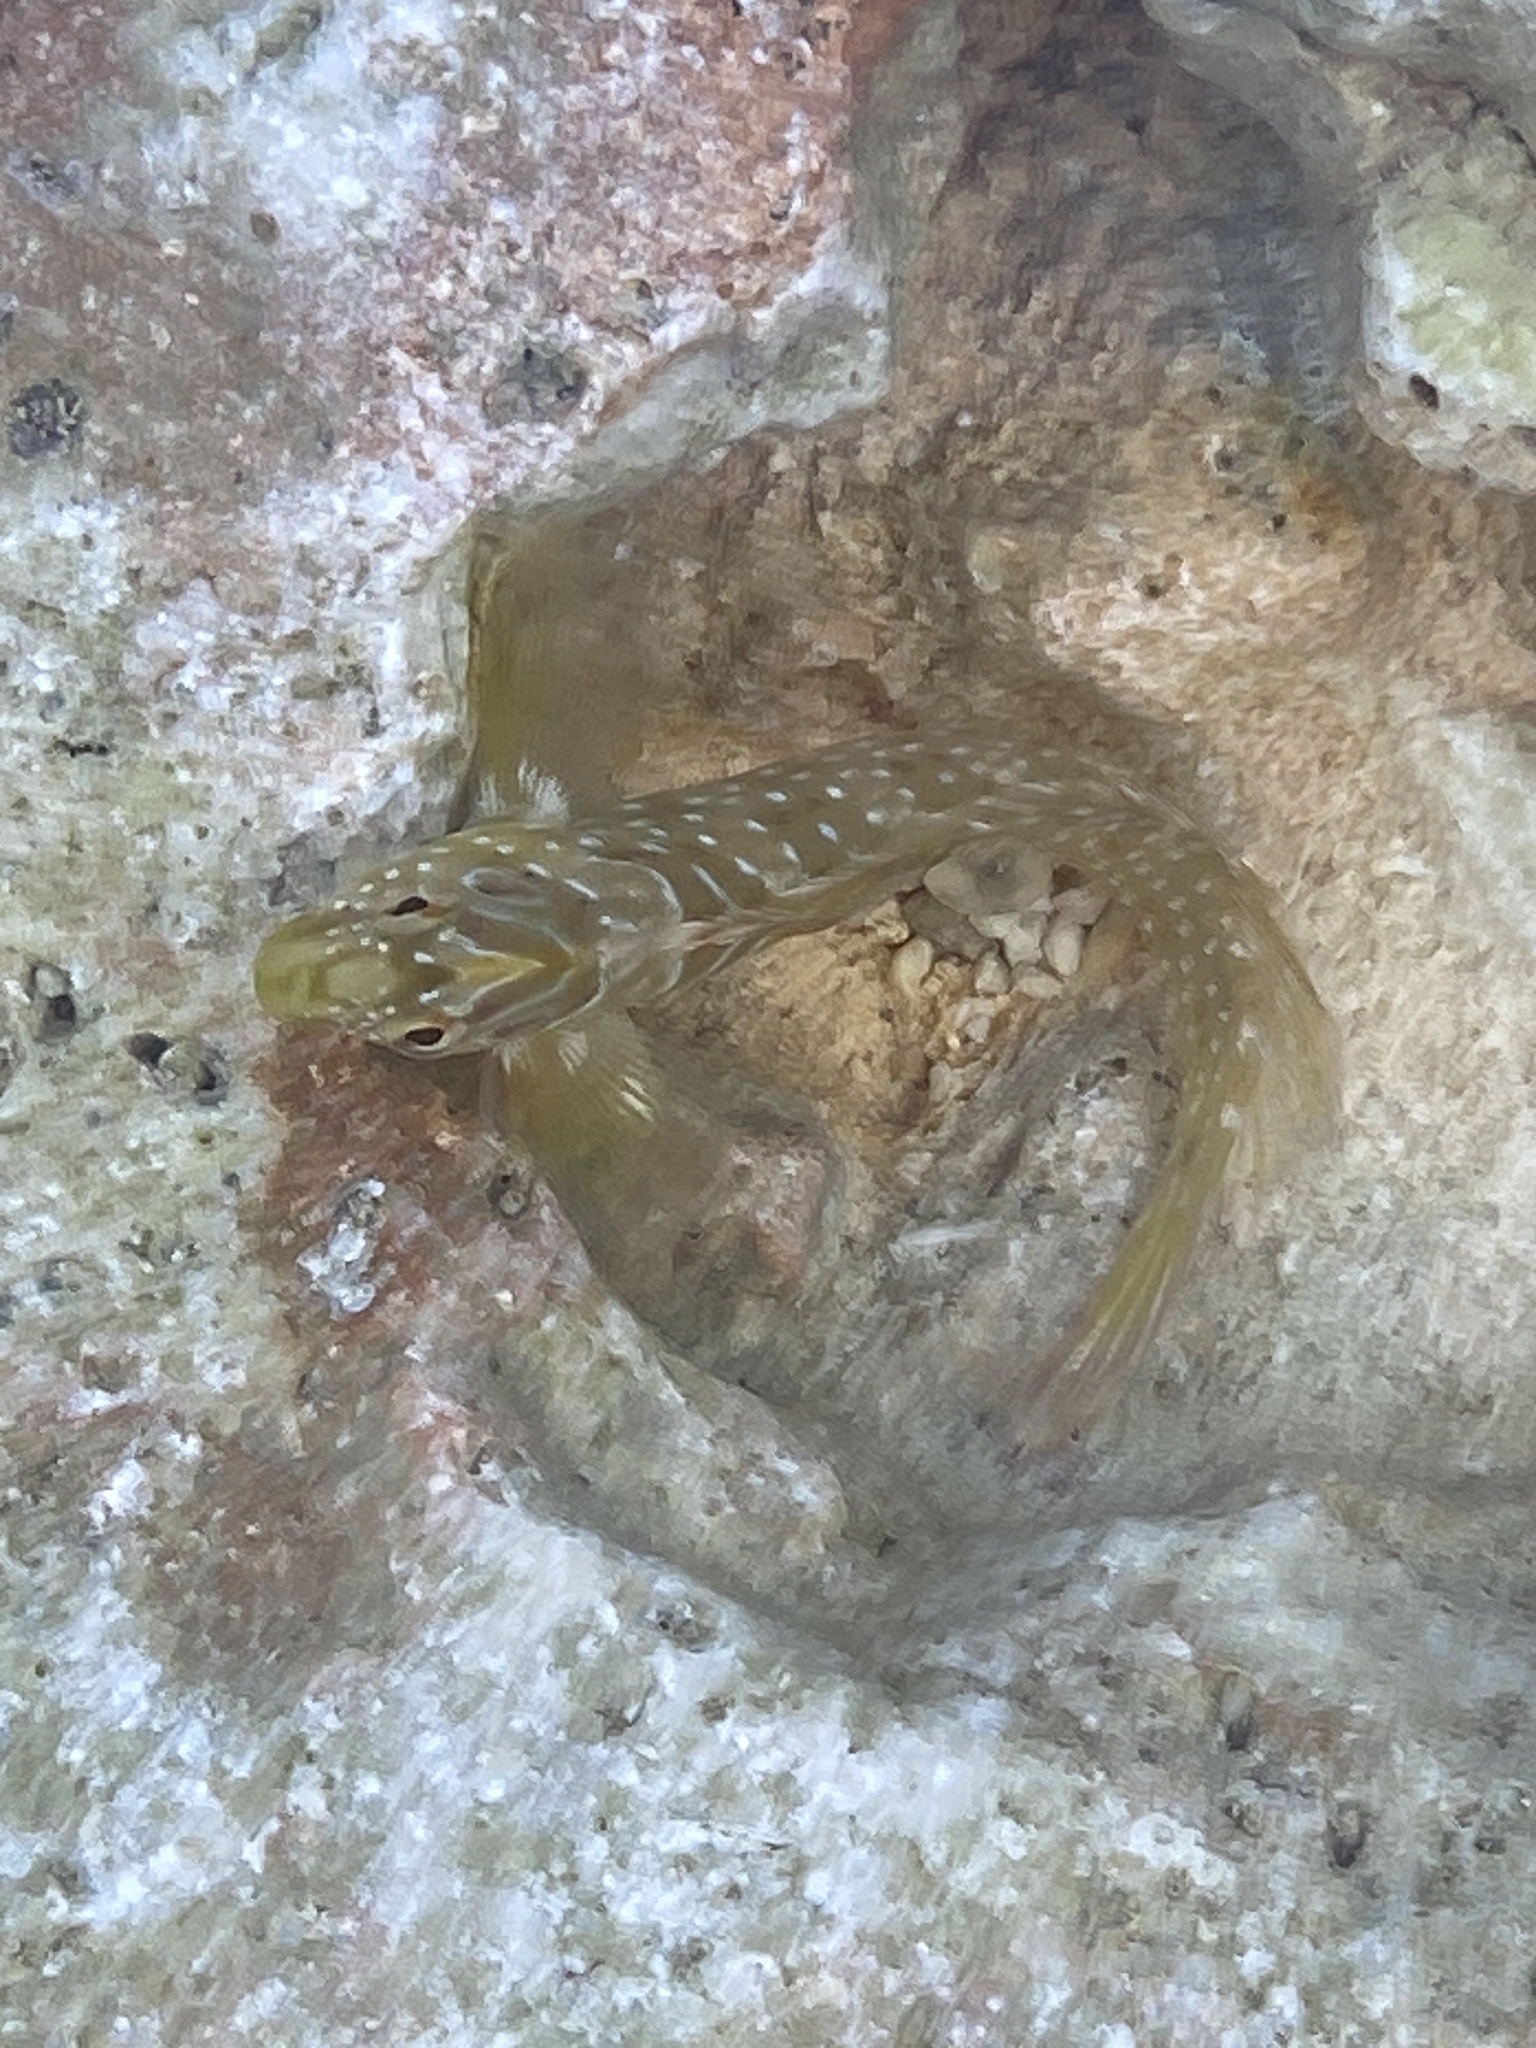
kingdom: Animalia
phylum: Chordata
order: Perciformes
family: Blenniidae
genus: Salaria
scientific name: Salaria pavo
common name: Peacock blenny
